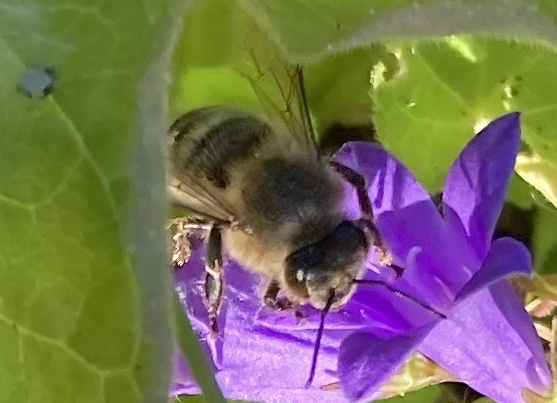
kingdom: Animalia
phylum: Arthropoda
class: Insecta
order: Hymenoptera
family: Apidae
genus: Apis
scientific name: Apis mellifera
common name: Honey bee
